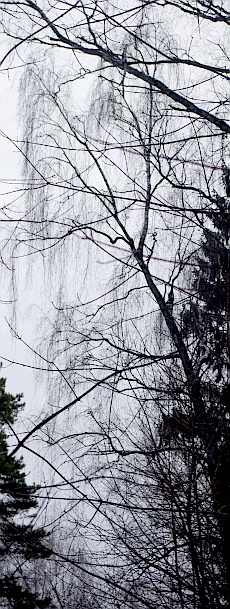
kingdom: Plantae
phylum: Tracheophyta
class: Magnoliopsida
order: Fagales
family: Betulaceae
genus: Betula
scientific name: Betula pendula
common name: Silver birch
